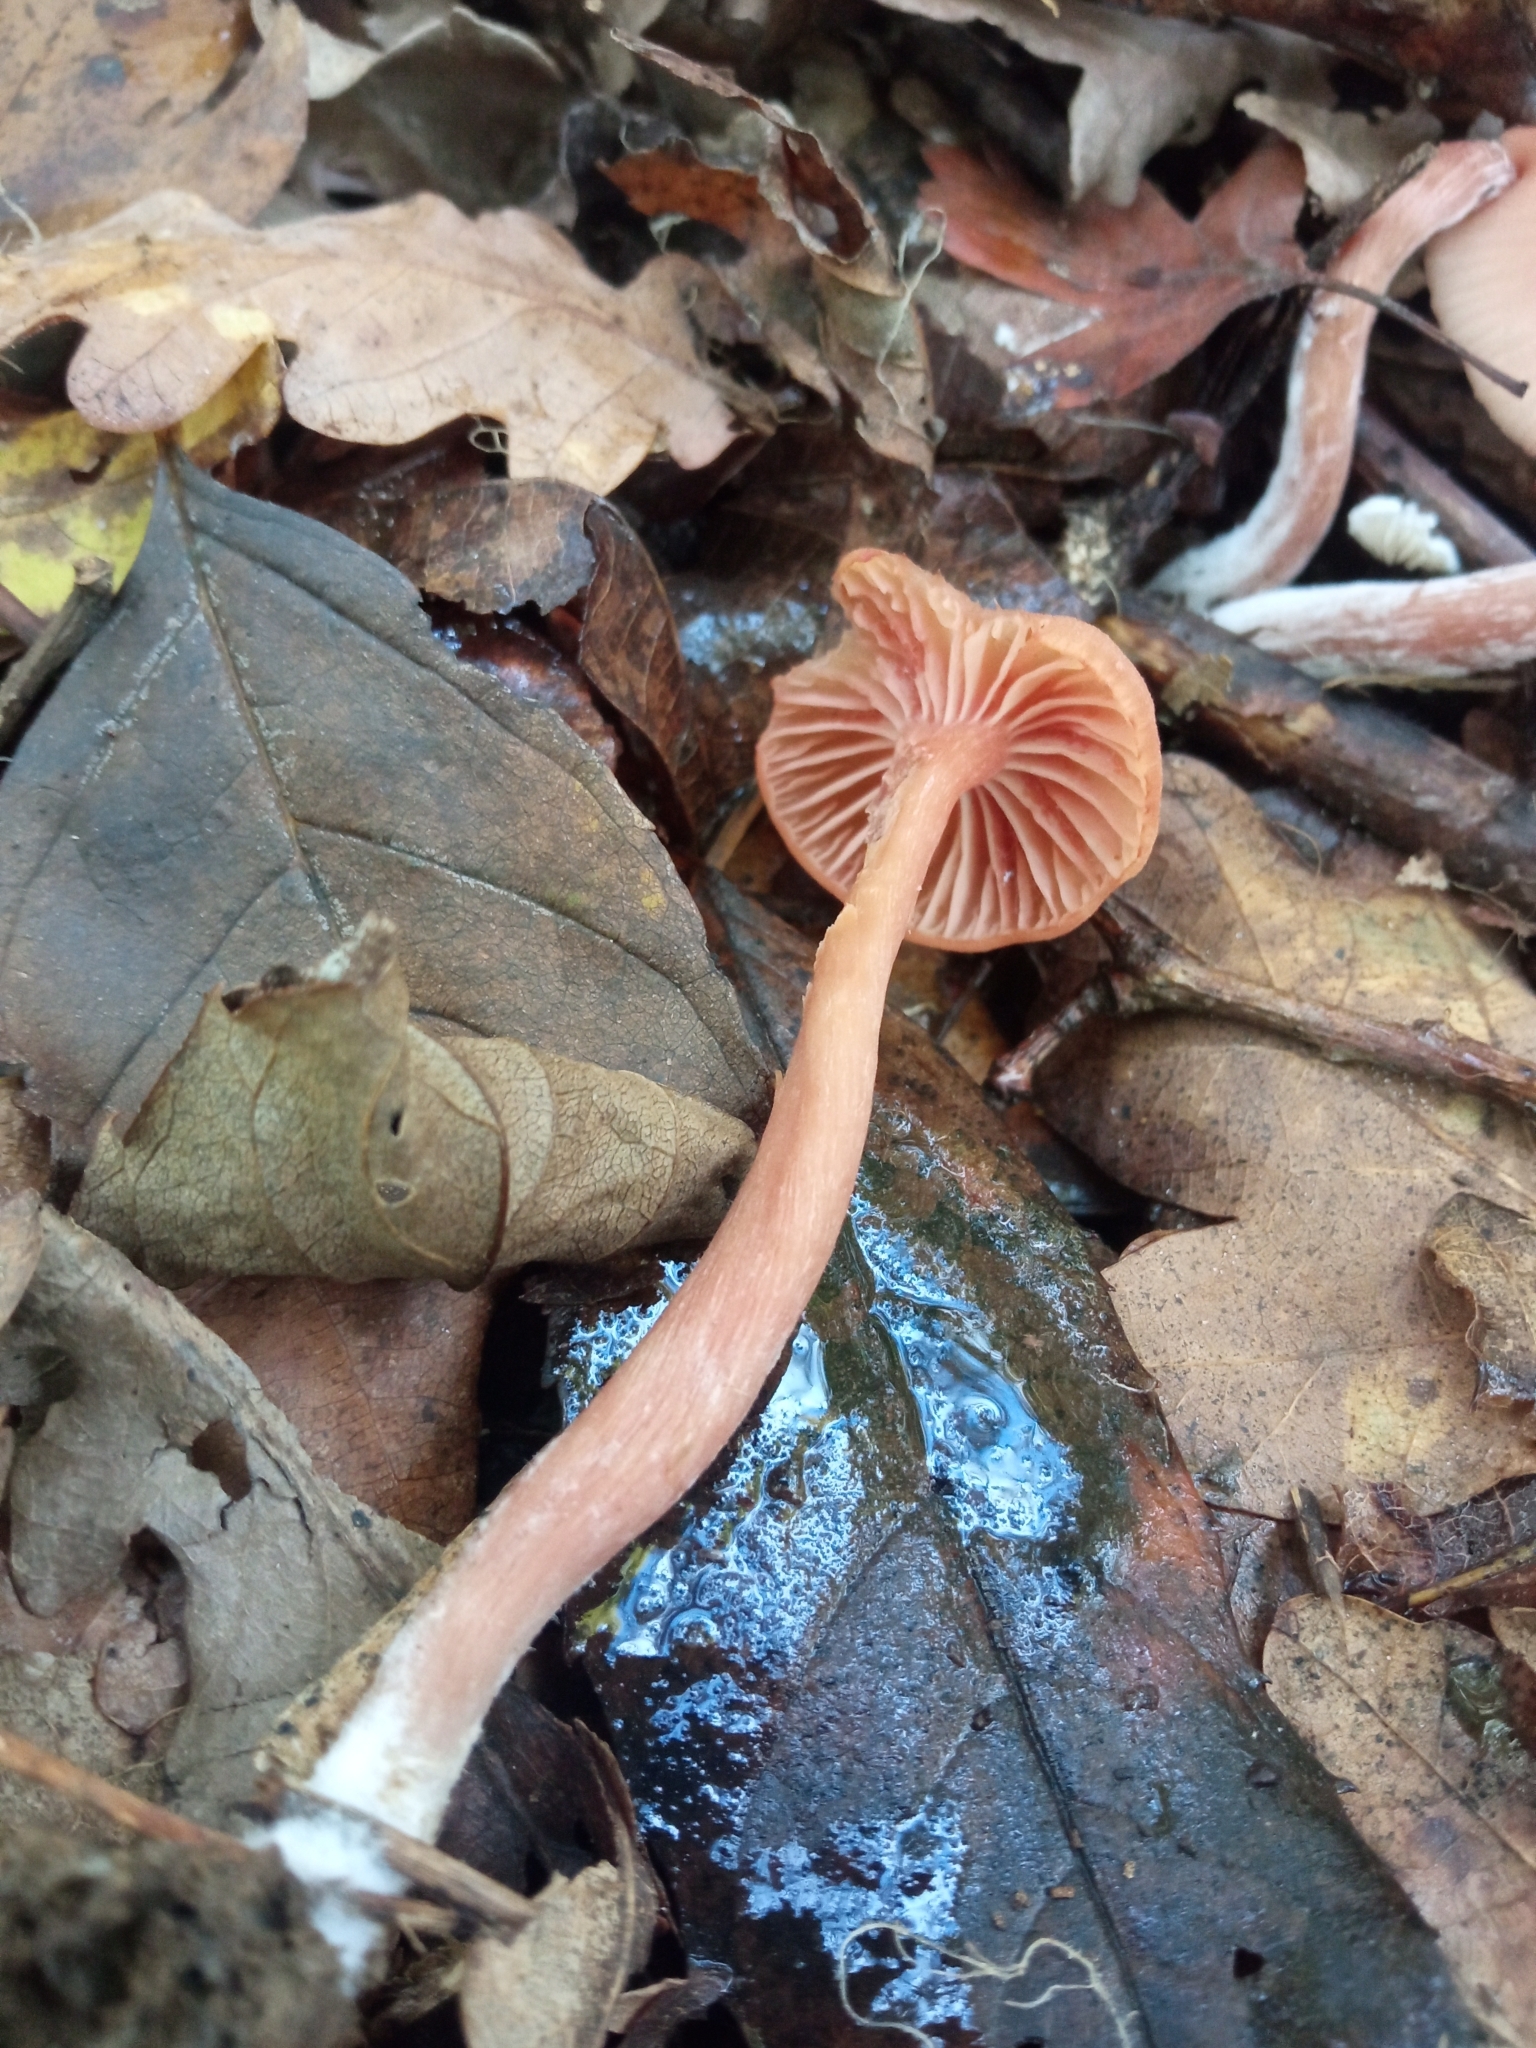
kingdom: Fungi
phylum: Basidiomycota
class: Agaricomycetes
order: Agaricales
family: Hydnangiaceae
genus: Laccaria
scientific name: Laccaria laccata
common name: Deceiver
